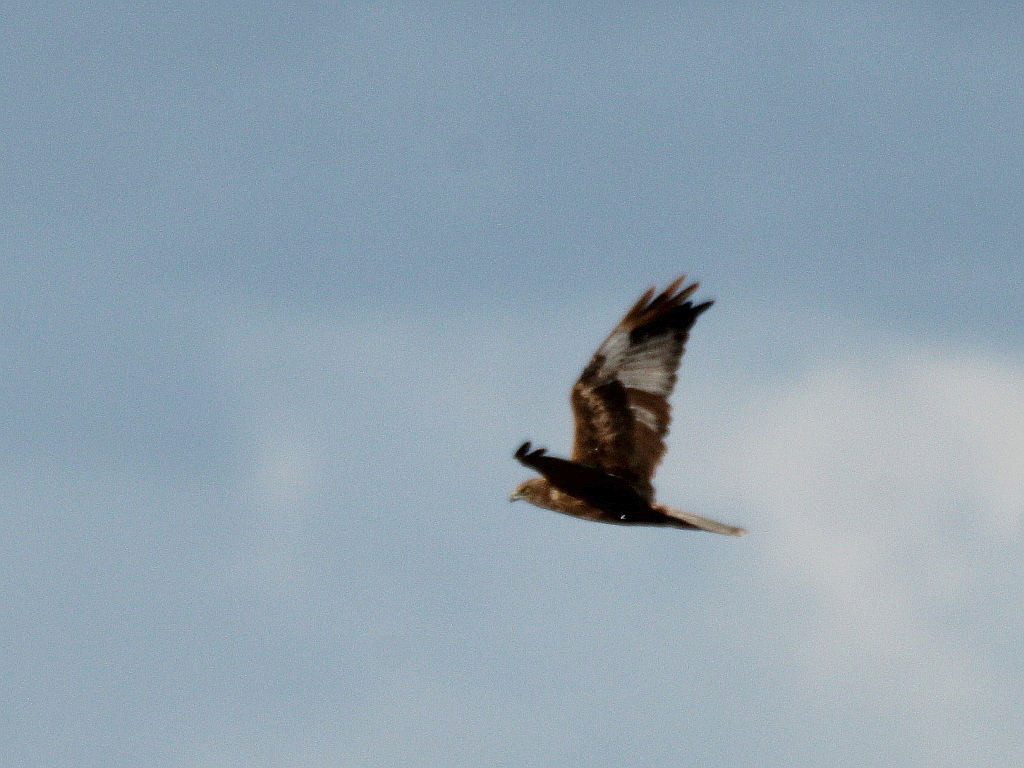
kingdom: Animalia
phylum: Chordata
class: Aves
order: Accipitriformes
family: Accipitridae
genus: Circus
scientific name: Circus aeruginosus
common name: Western marsh harrier
